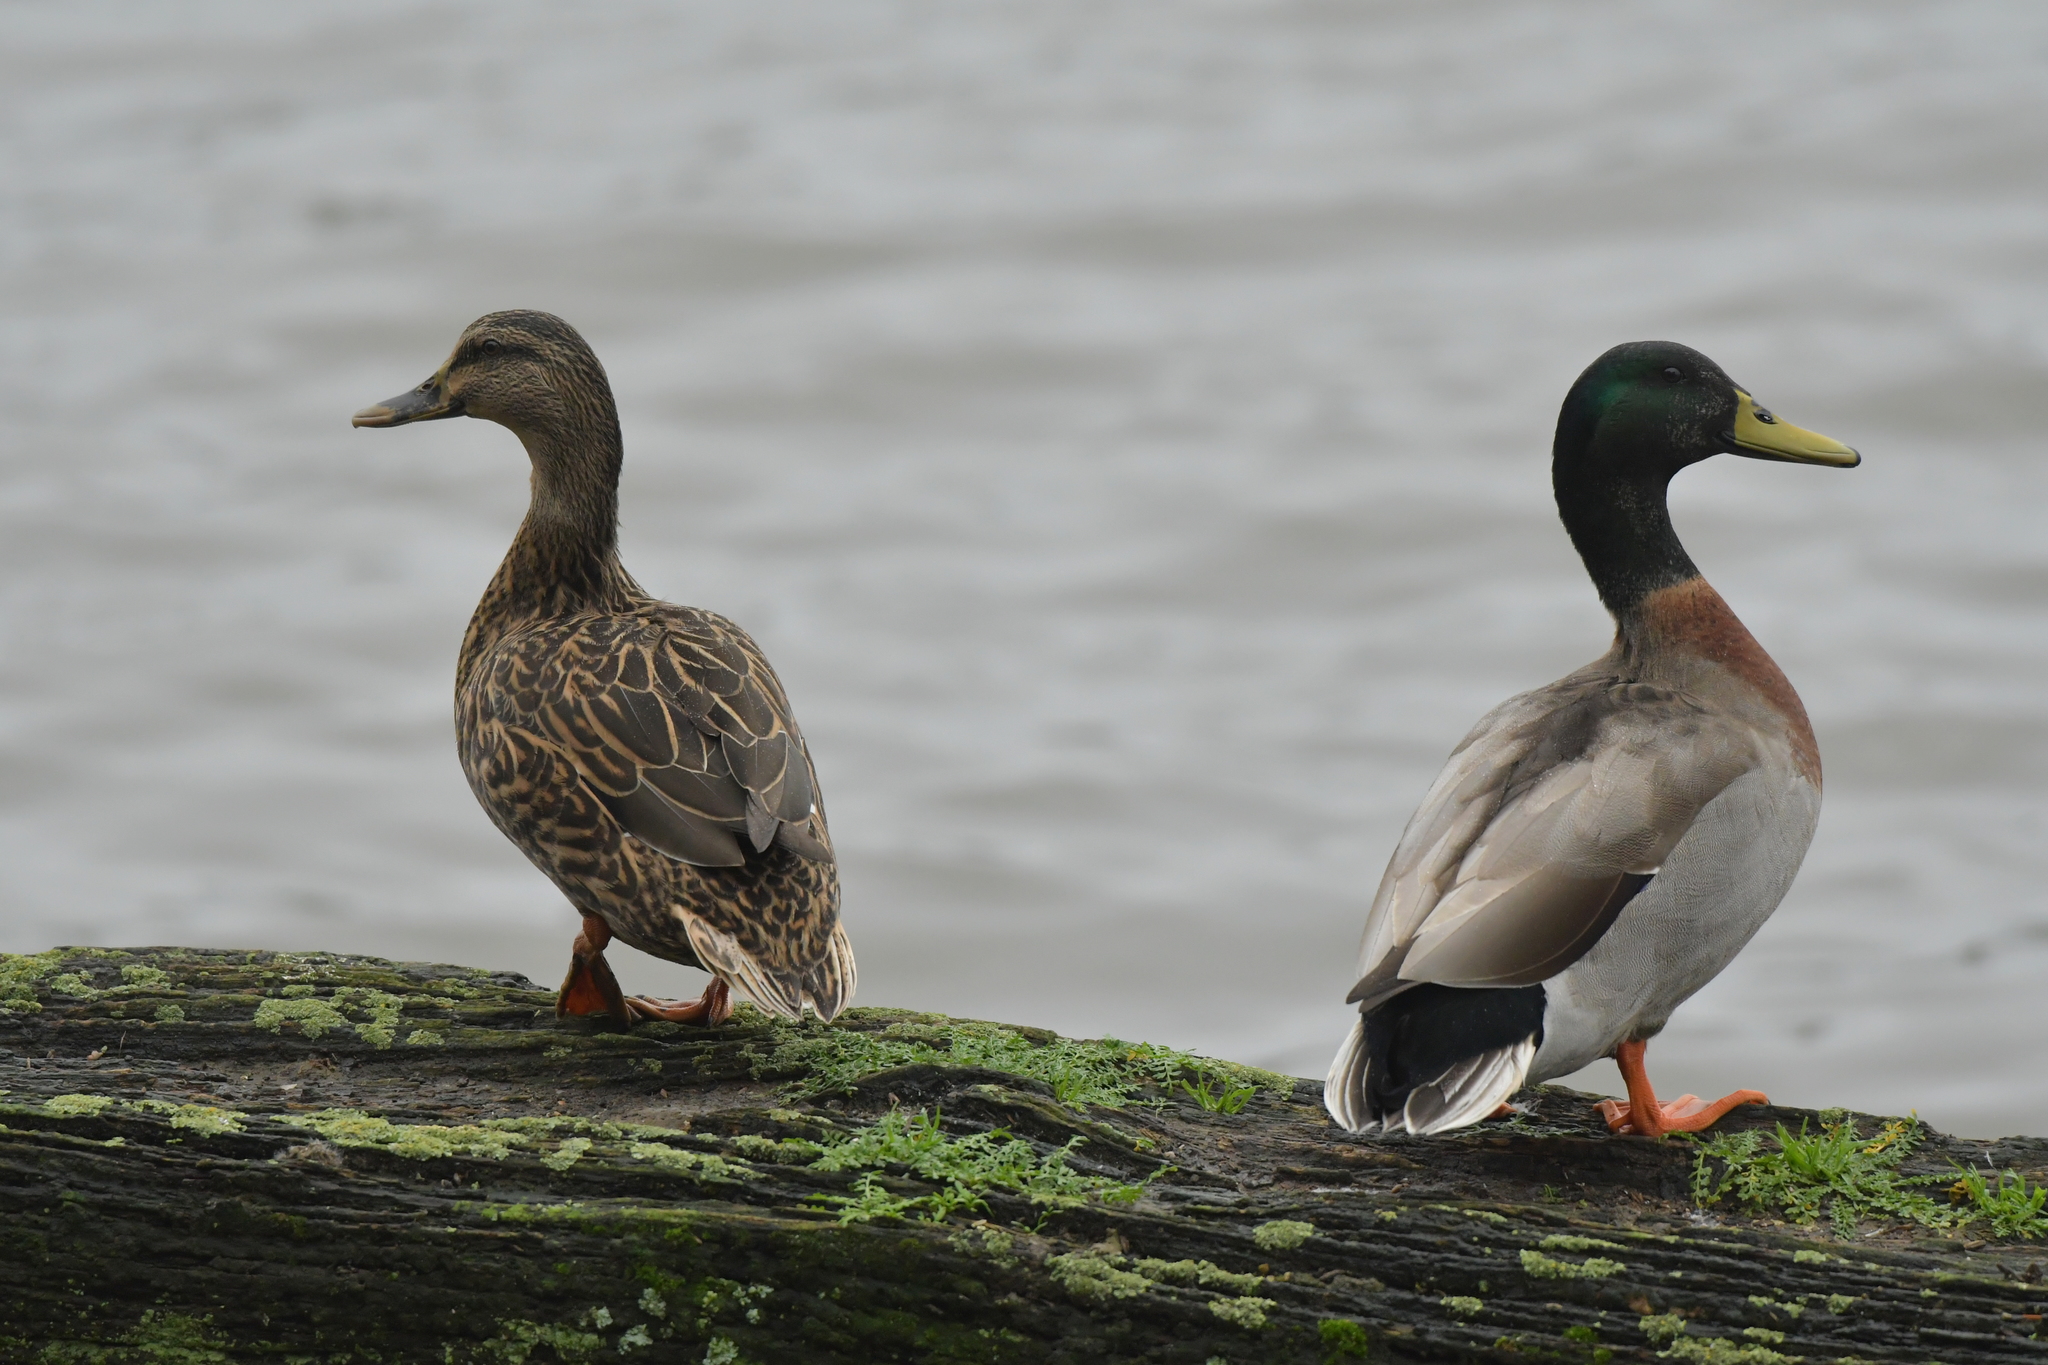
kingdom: Animalia
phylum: Chordata
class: Aves
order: Anseriformes
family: Anatidae
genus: Anas
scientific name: Anas platyrhynchos
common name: Mallard
